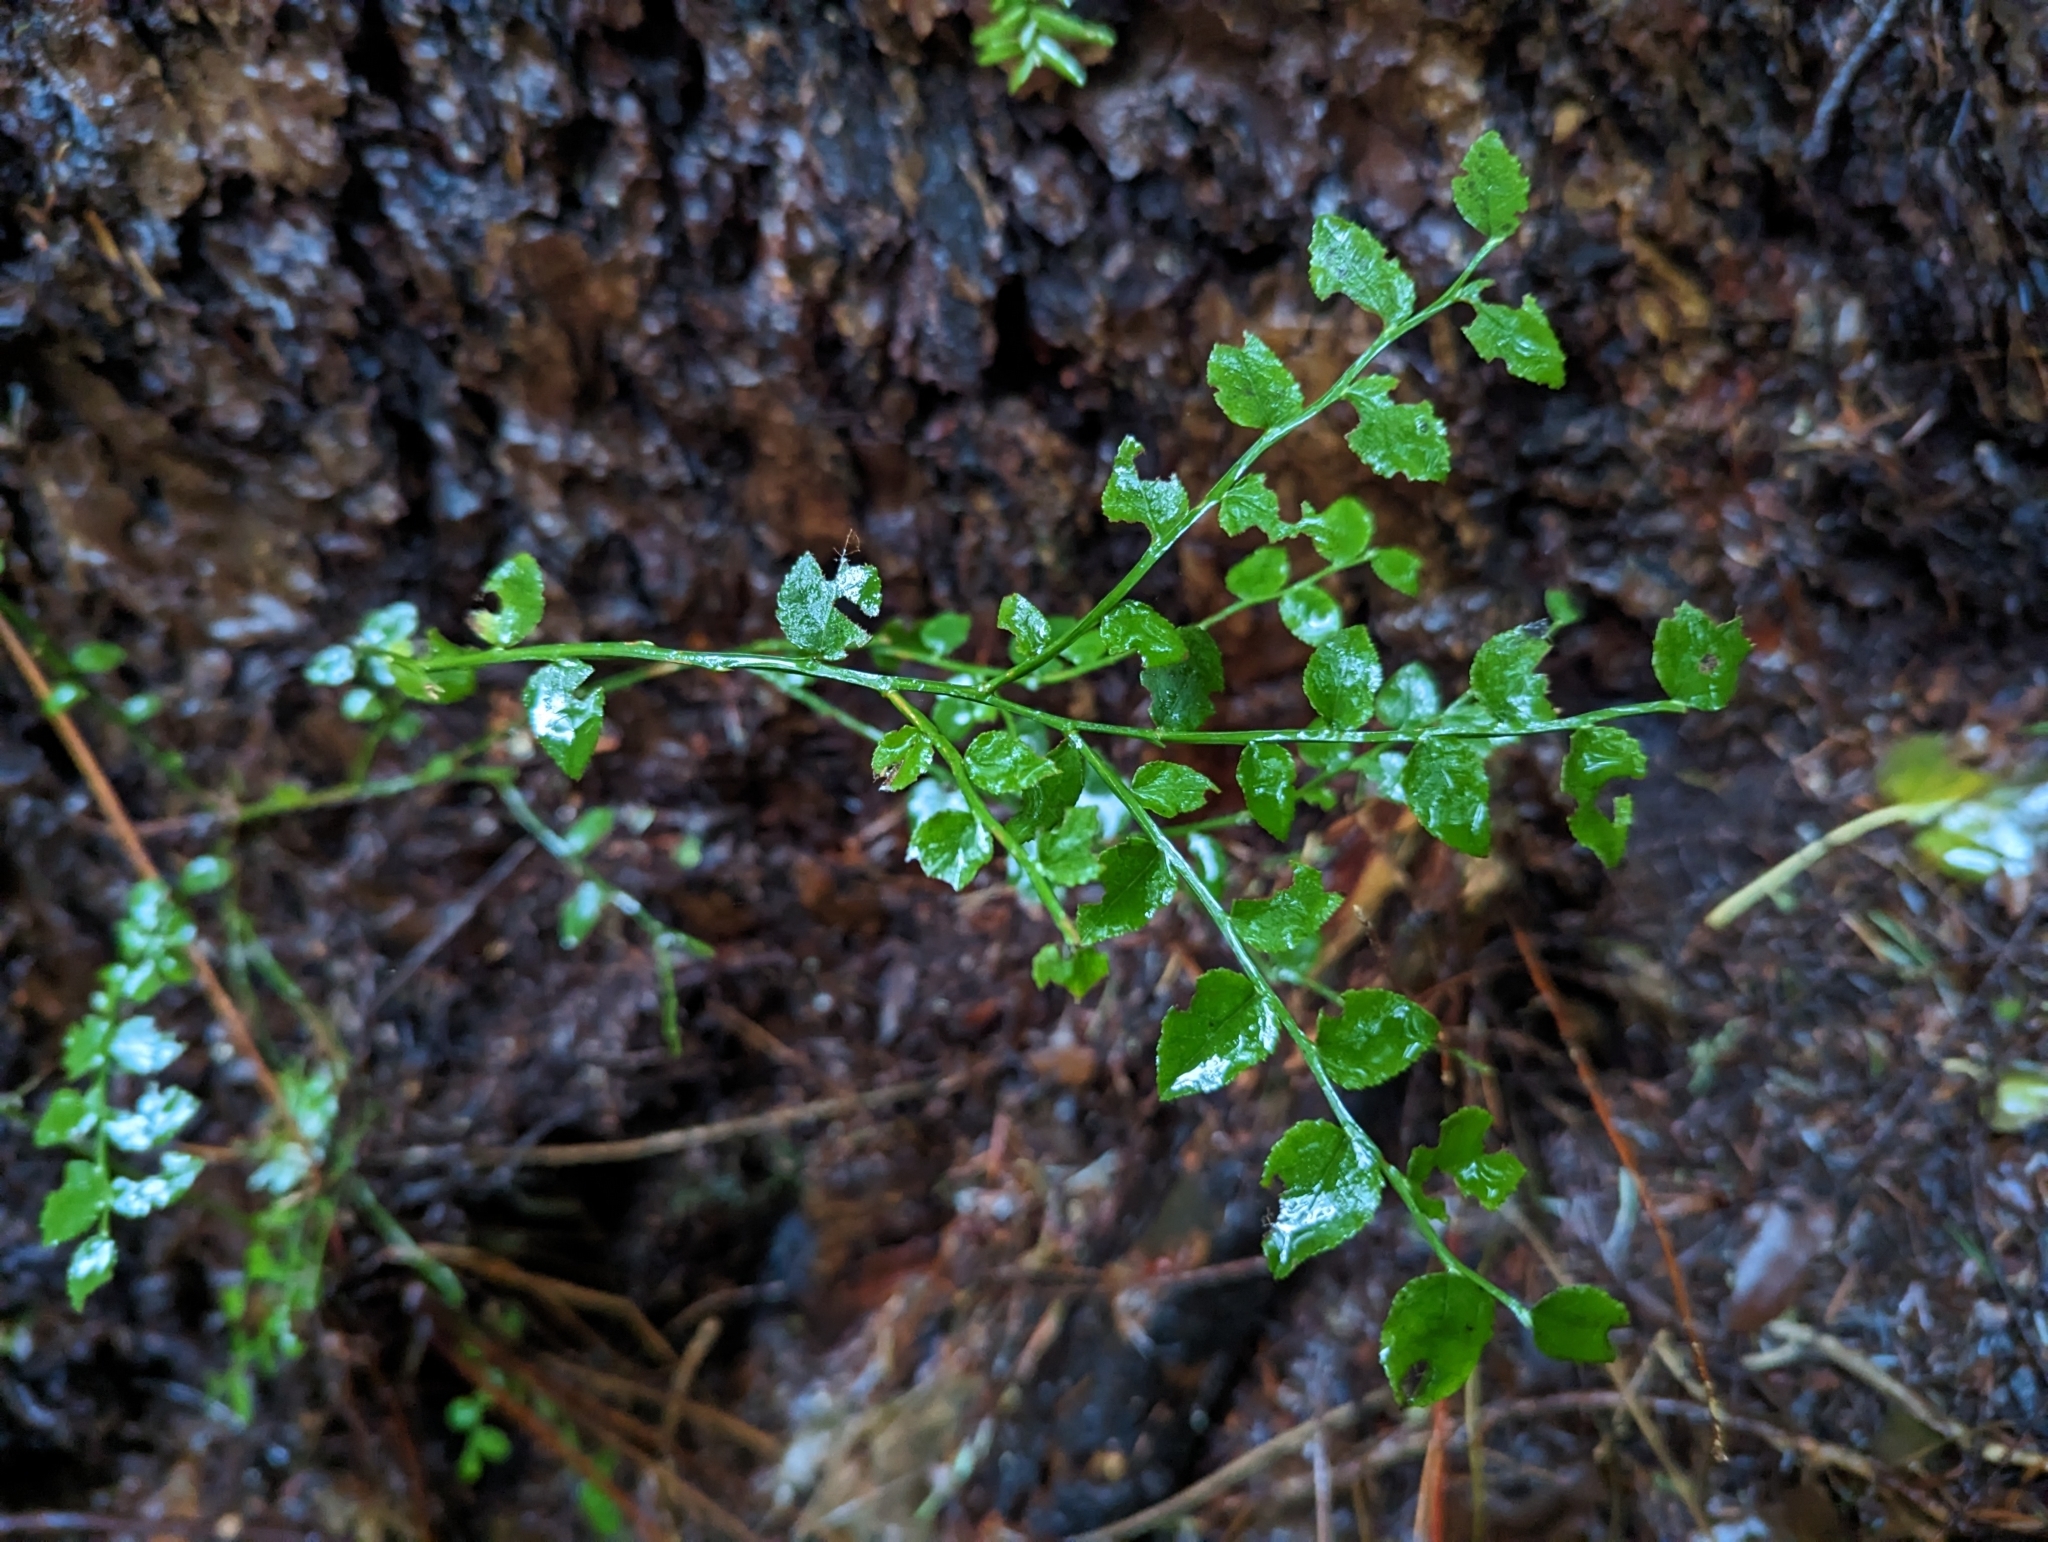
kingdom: Plantae
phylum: Tracheophyta
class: Magnoliopsida
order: Ericales
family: Ericaceae
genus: Vaccinium
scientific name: Vaccinium parvifolium
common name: Red-huckleberry
